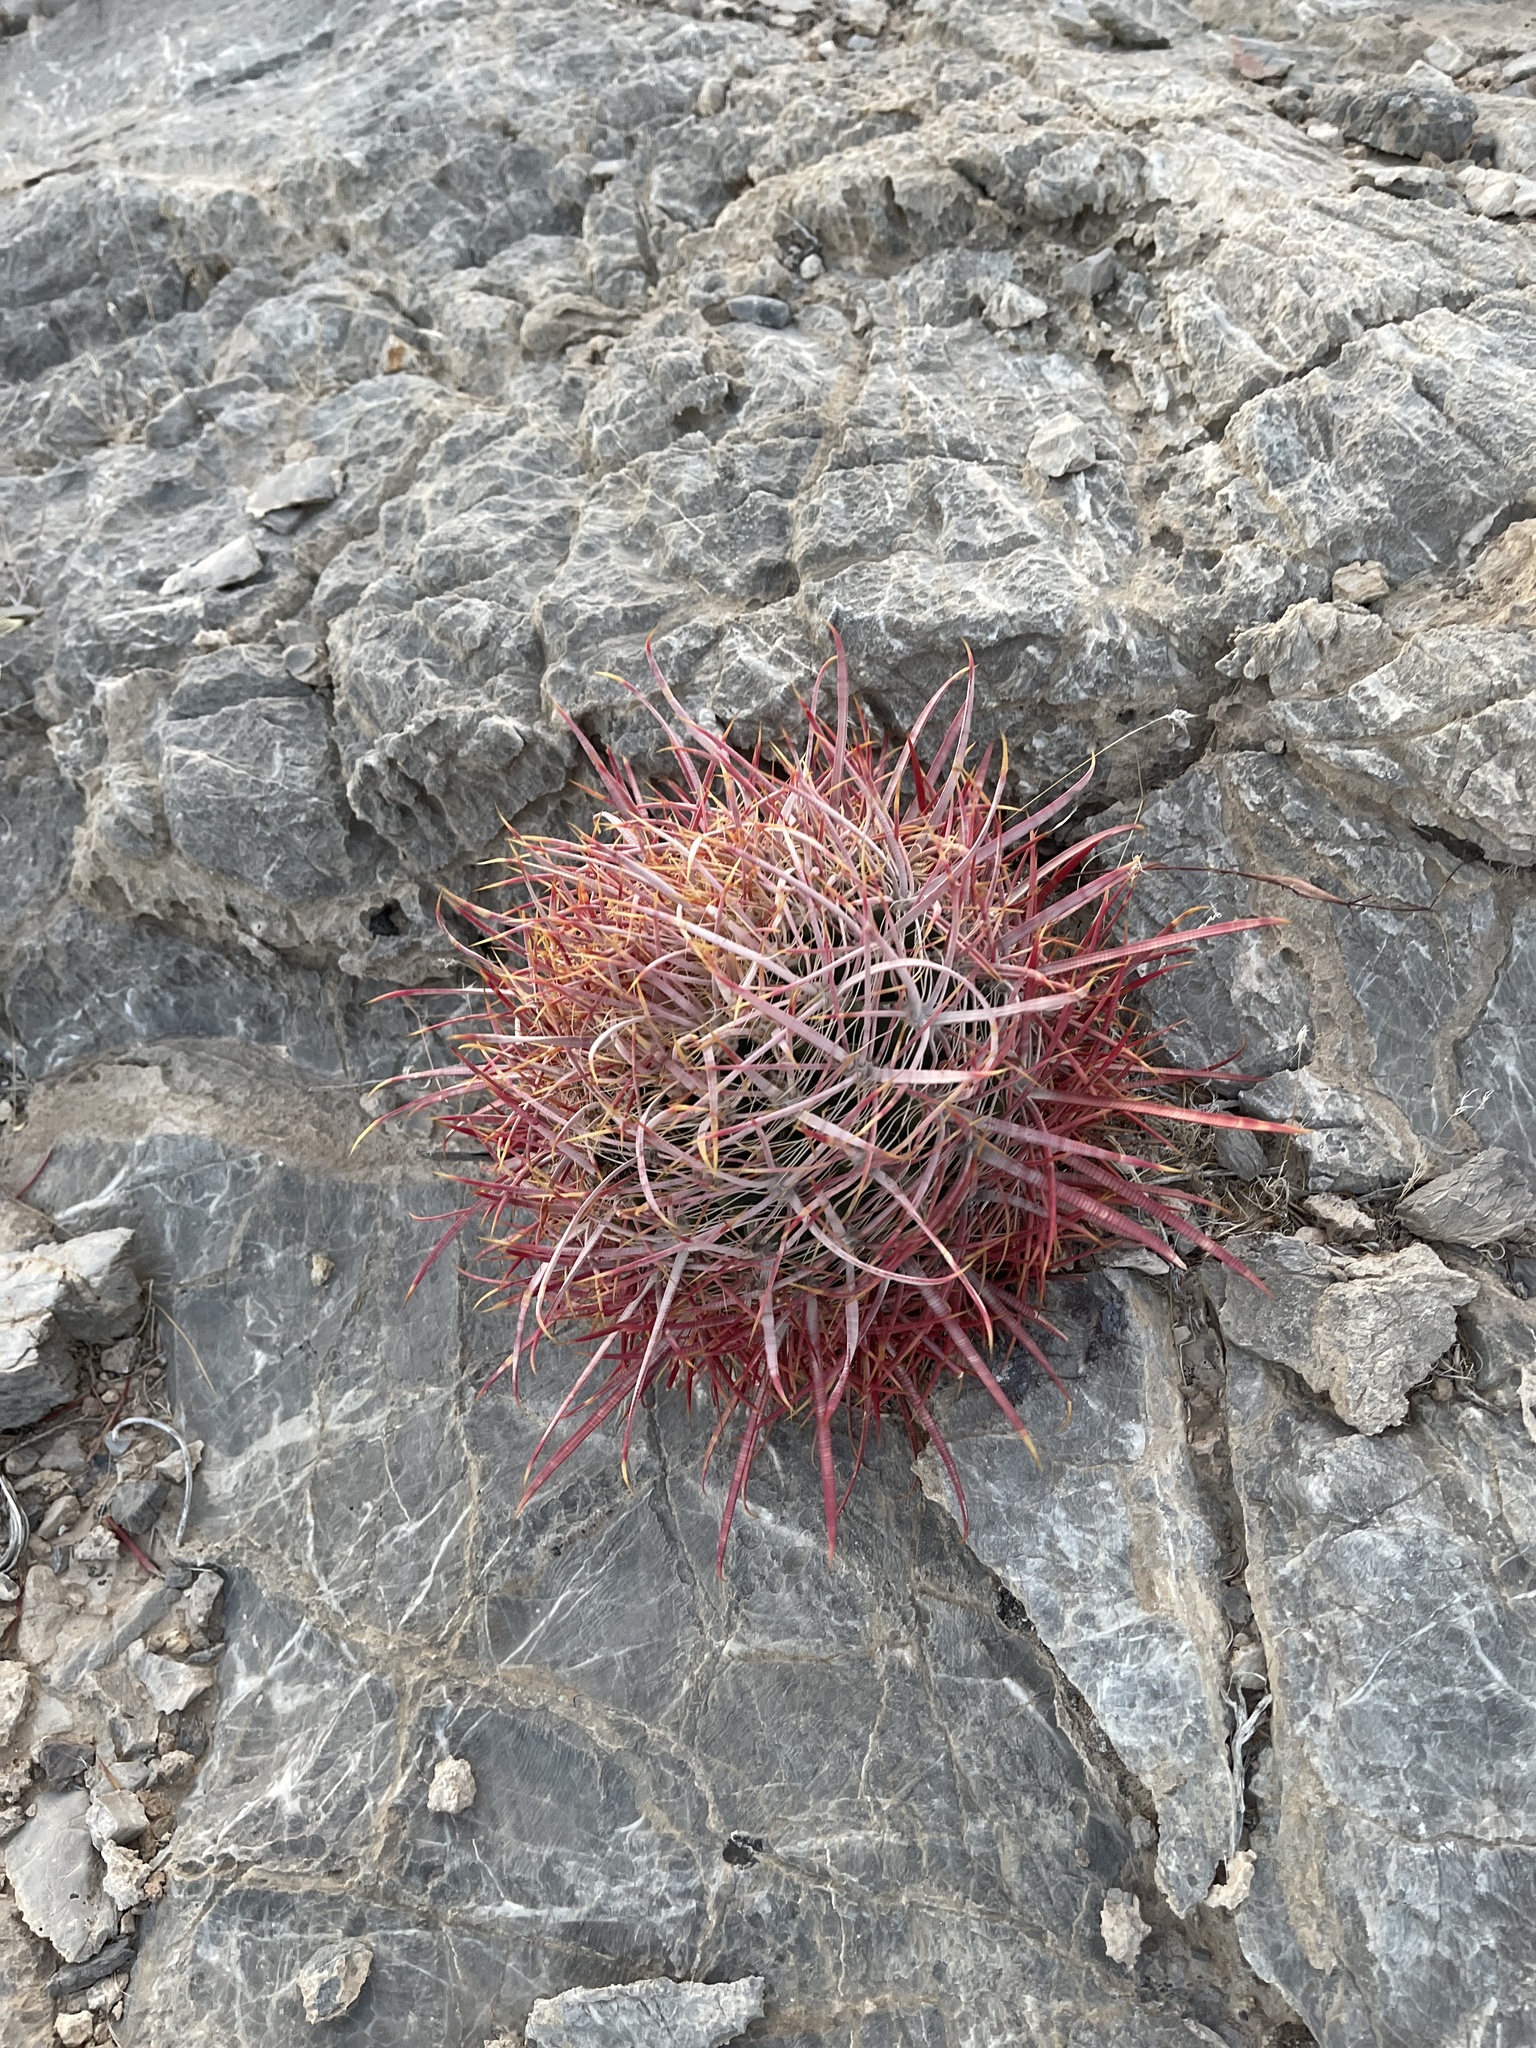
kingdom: Plantae
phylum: Tracheophyta
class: Magnoliopsida
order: Caryophyllales
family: Cactaceae
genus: Ferocactus
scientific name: Ferocactus cylindraceus
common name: California barrel cactus
